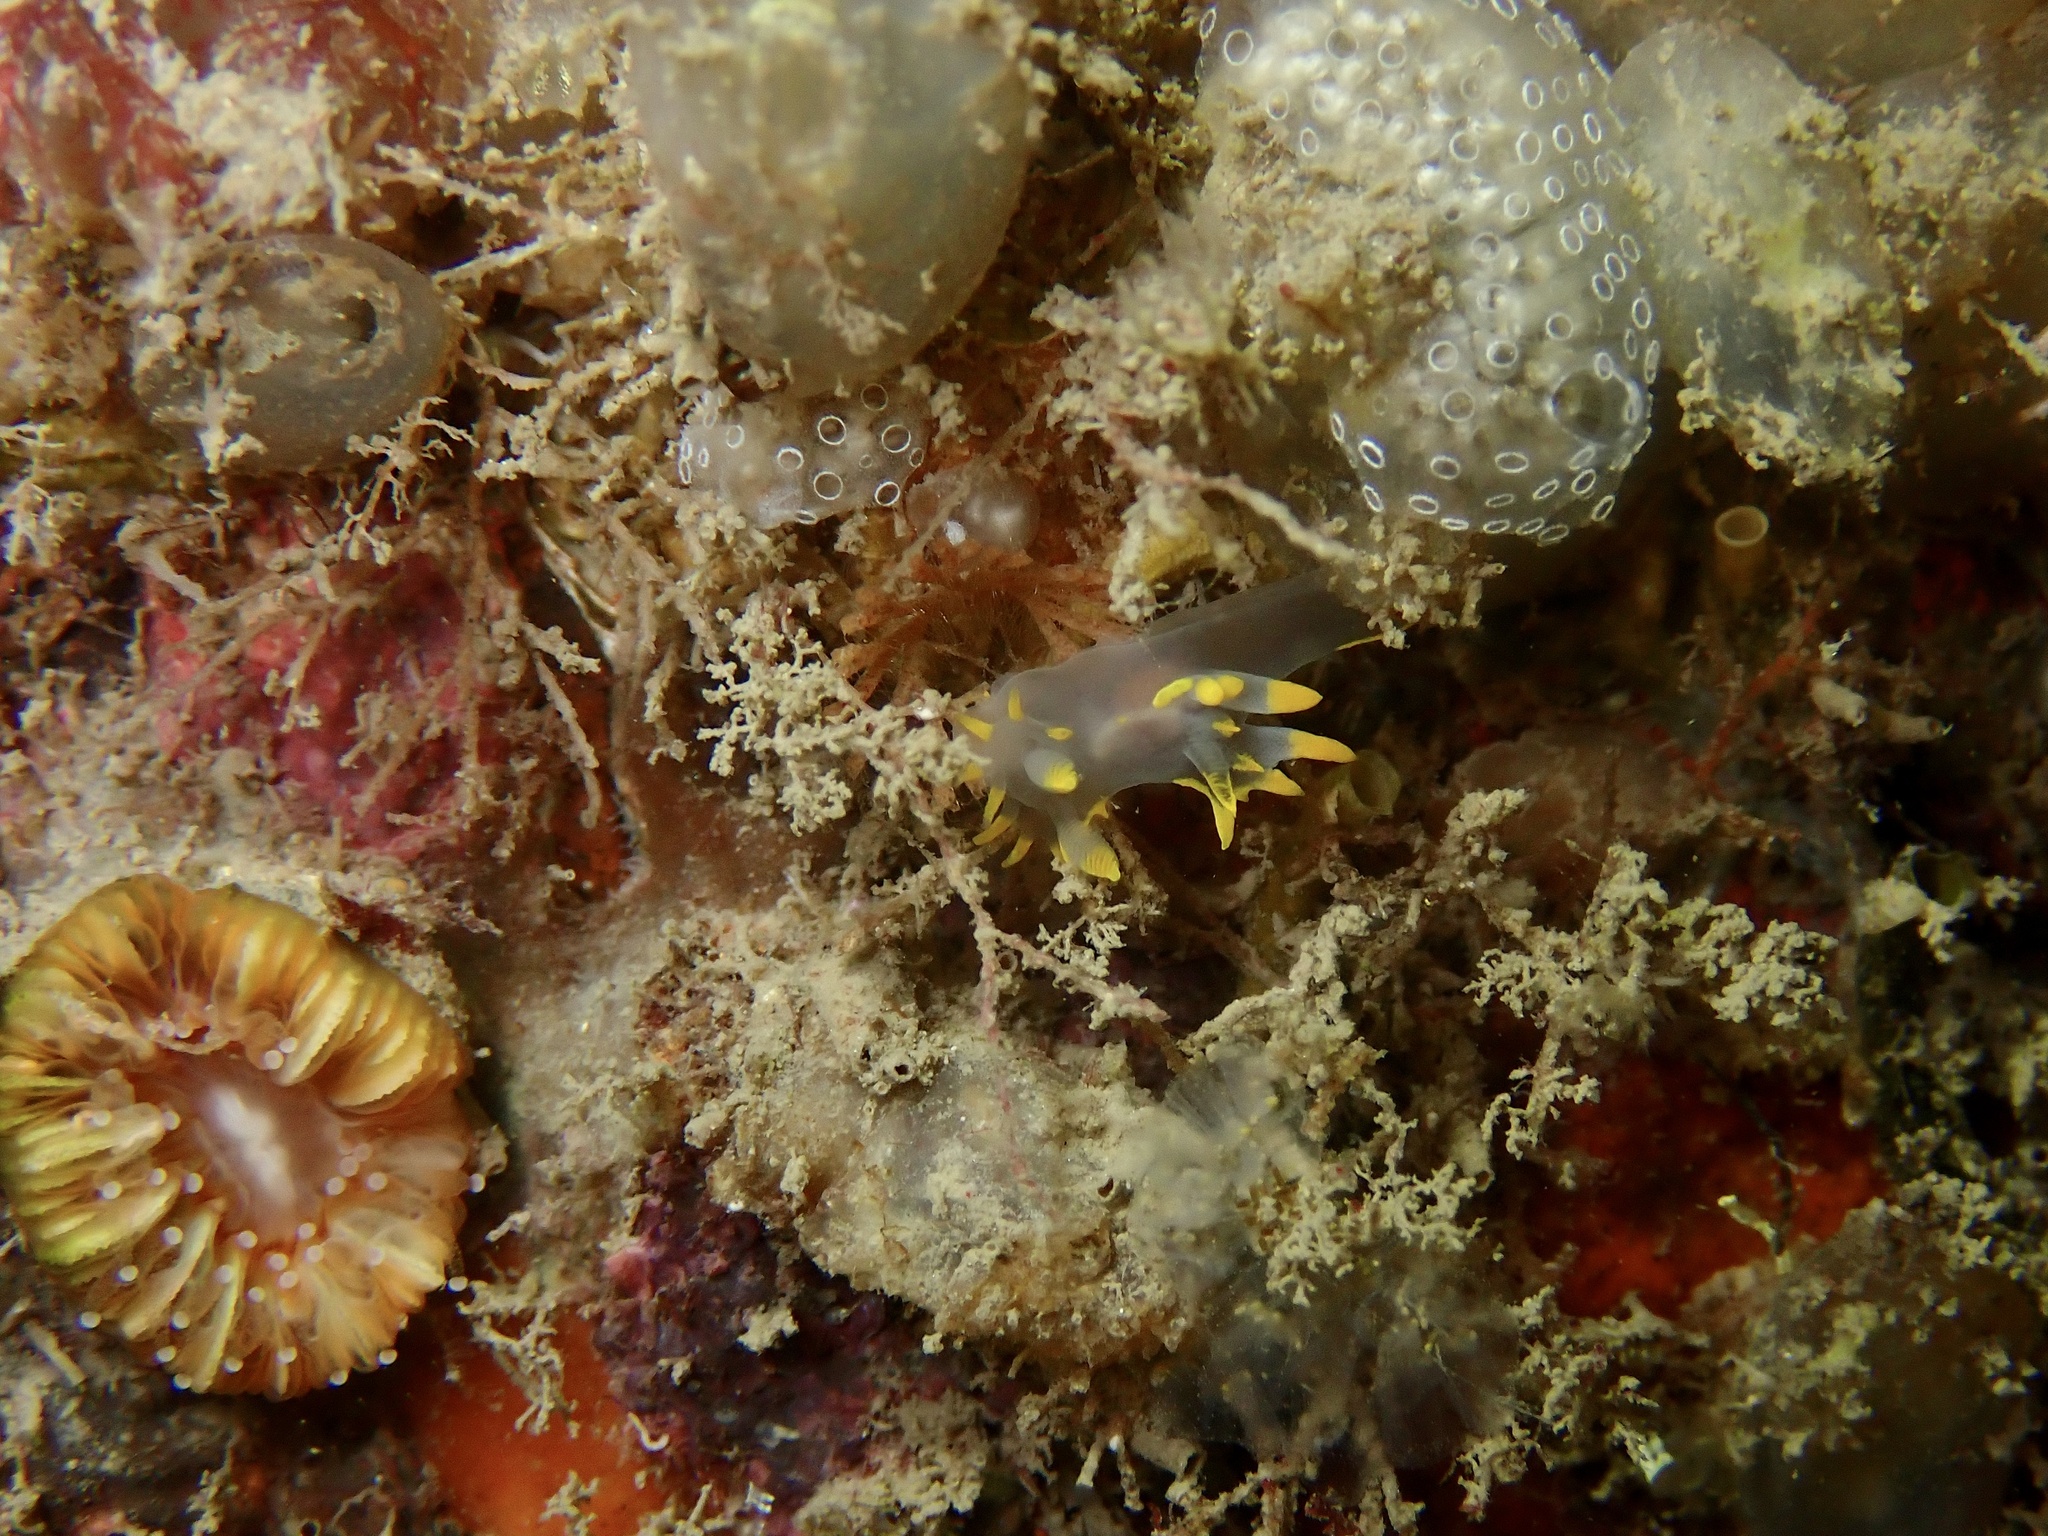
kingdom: Animalia
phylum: Mollusca
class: Gastropoda
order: Nudibranchia
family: Polyceridae
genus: Polycera
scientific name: Polycera faeroensis
